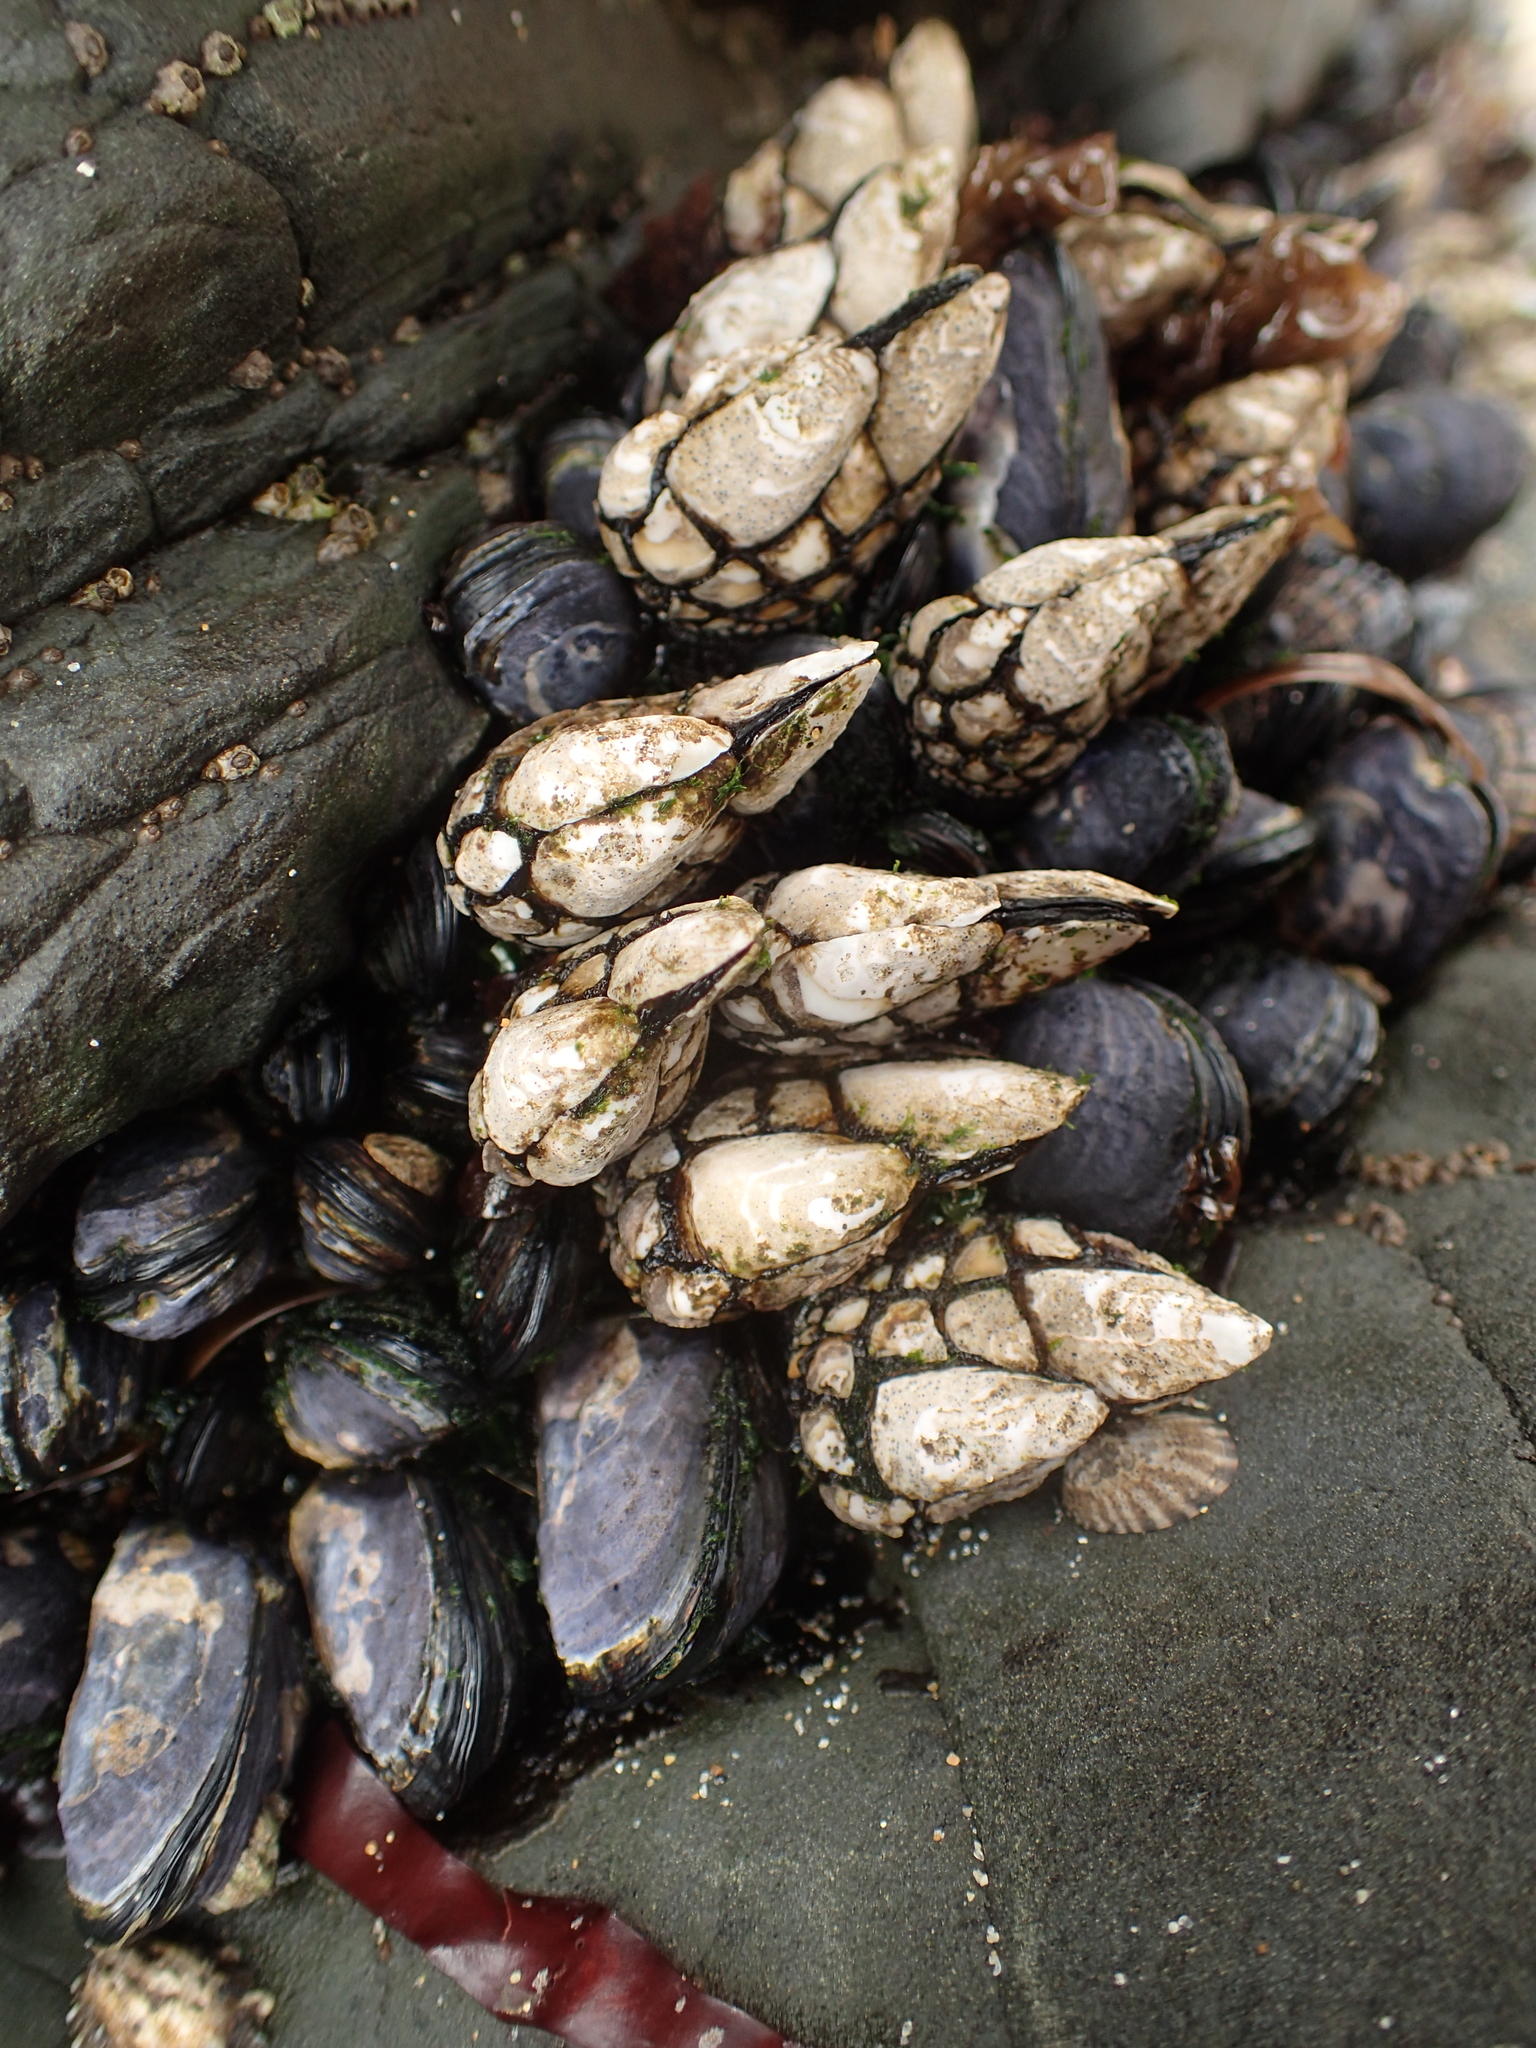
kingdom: Animalia
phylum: Arthropoda
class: Maxillopoda
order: Pedunculata
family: Pollicipedidae
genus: Pollicipes
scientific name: Pollicipes polymerus
